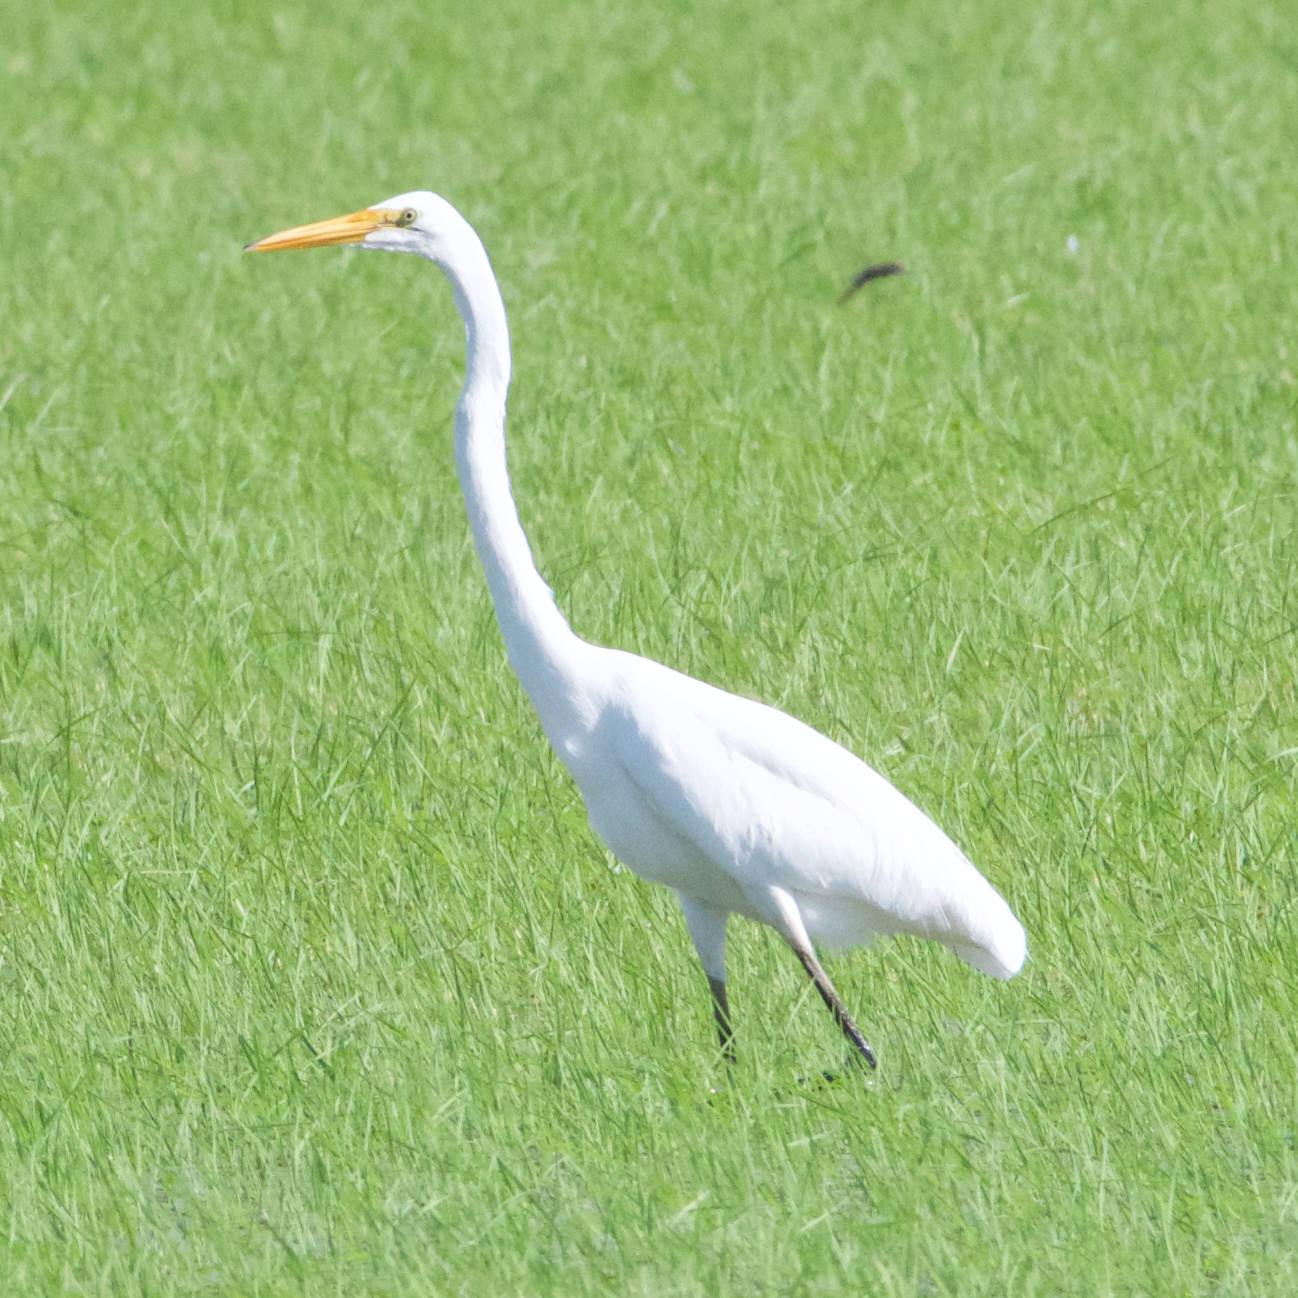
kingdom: Animalia
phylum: Chordata
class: Aves
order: Pelecaniformes
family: Ardeidae
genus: Ardea
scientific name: Ardea alba
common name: Great egret
